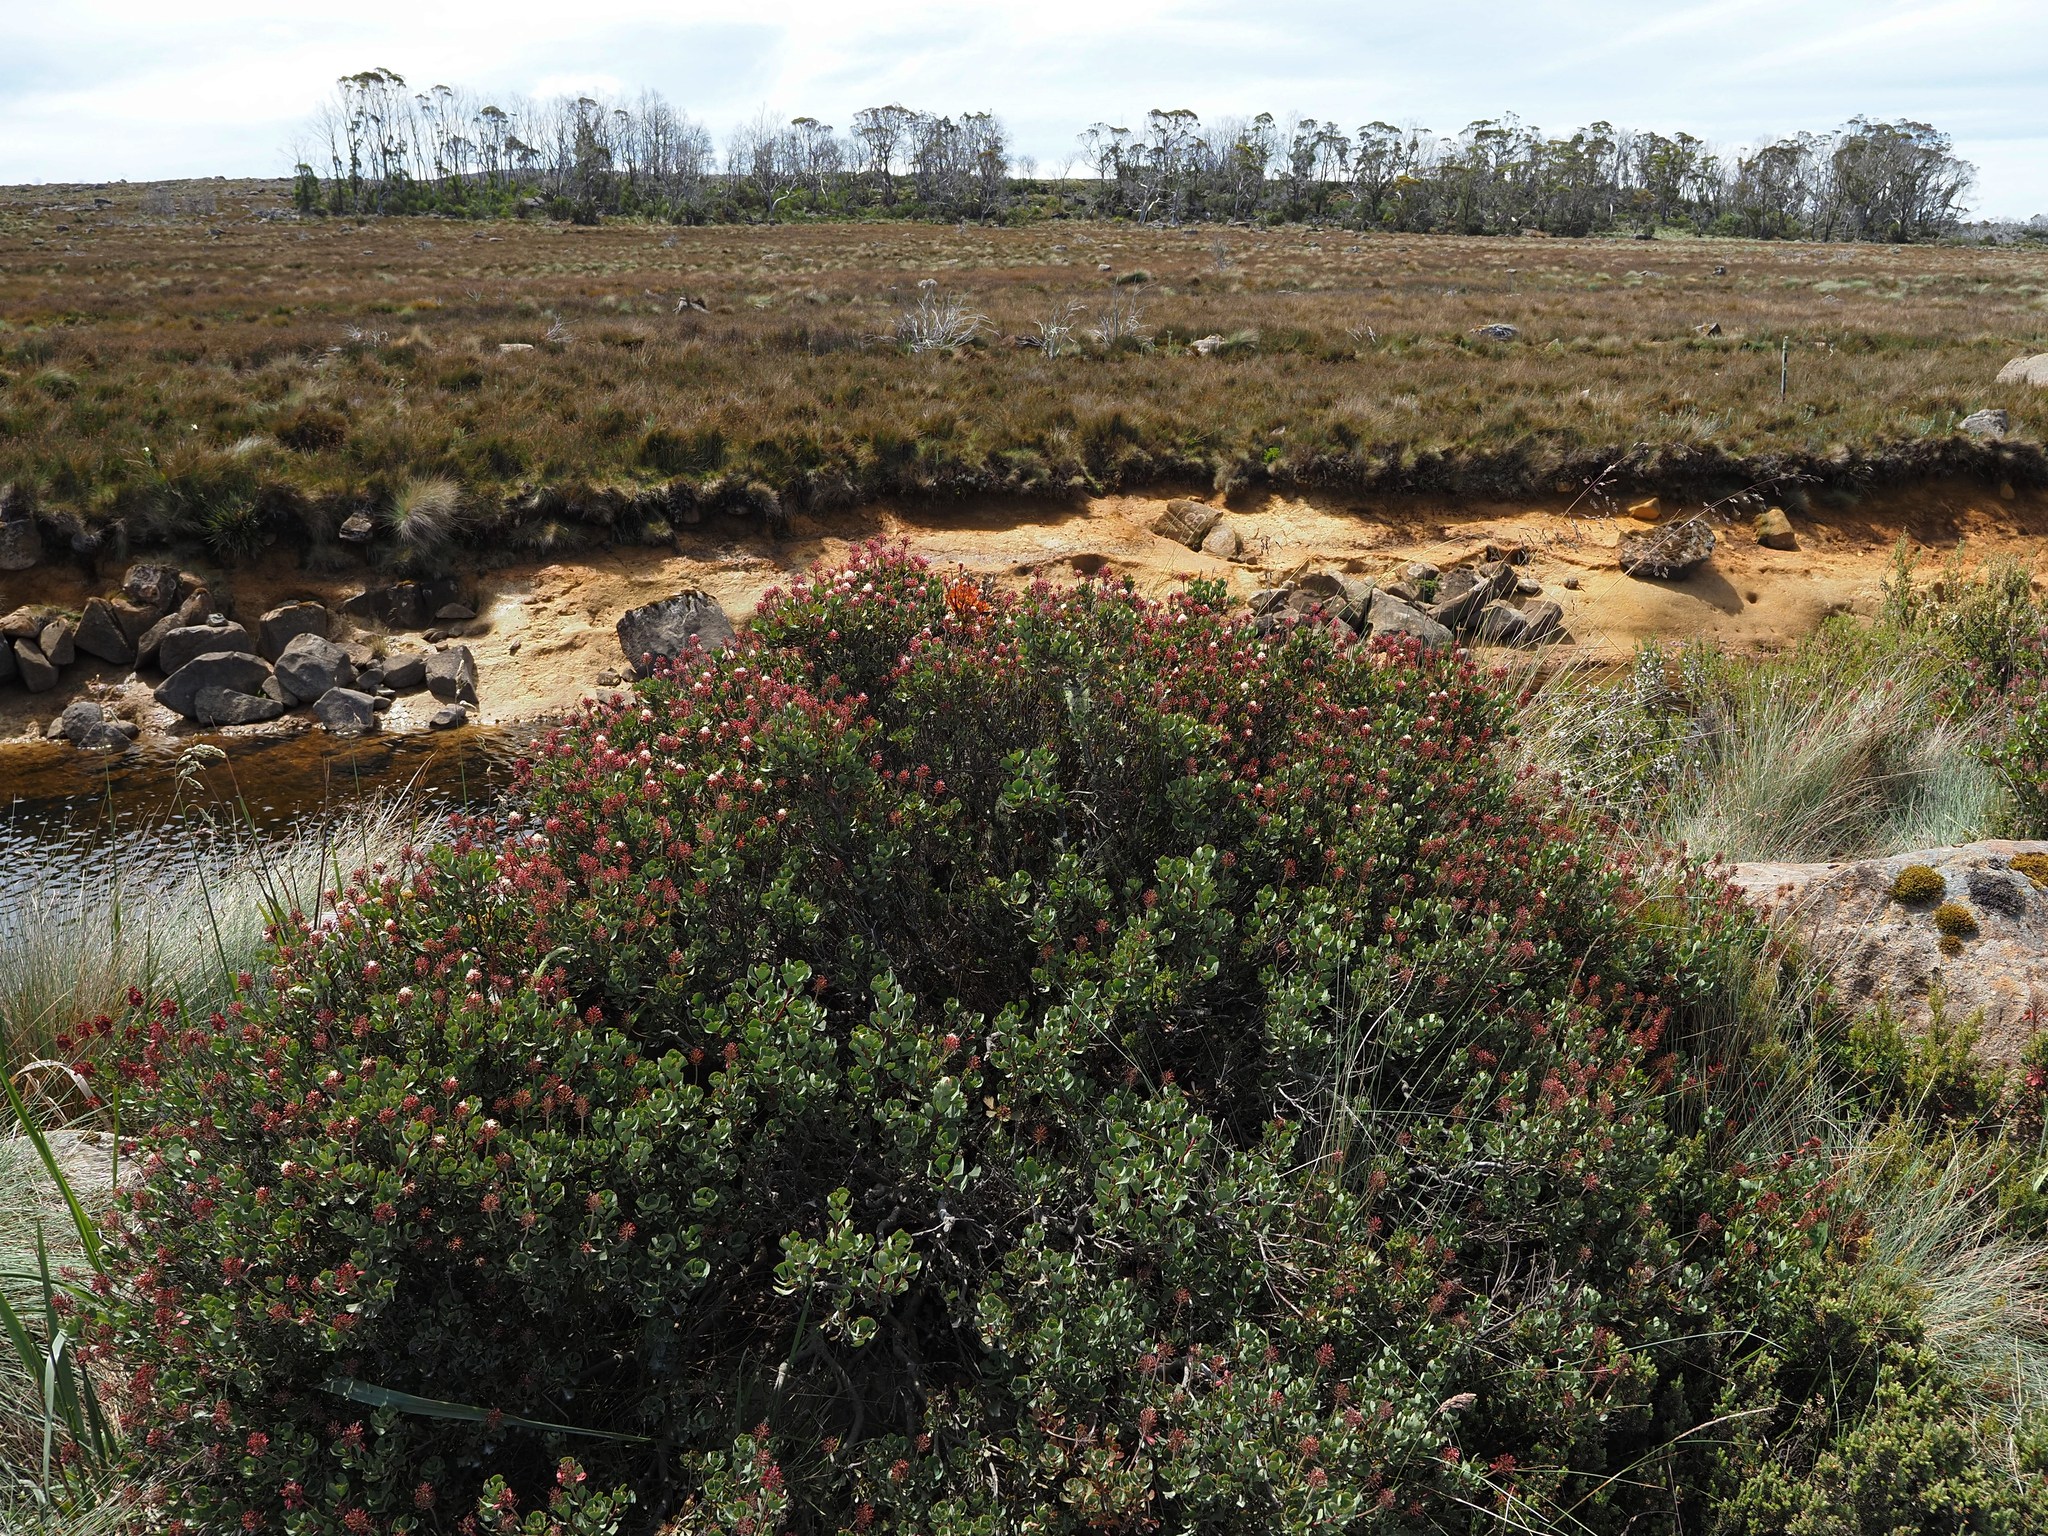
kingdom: Plantae
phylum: Tracheophyta
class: Magnoliopsida
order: Proteales
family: Proteaceae
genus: Bellendena
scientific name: Bellendena montana
